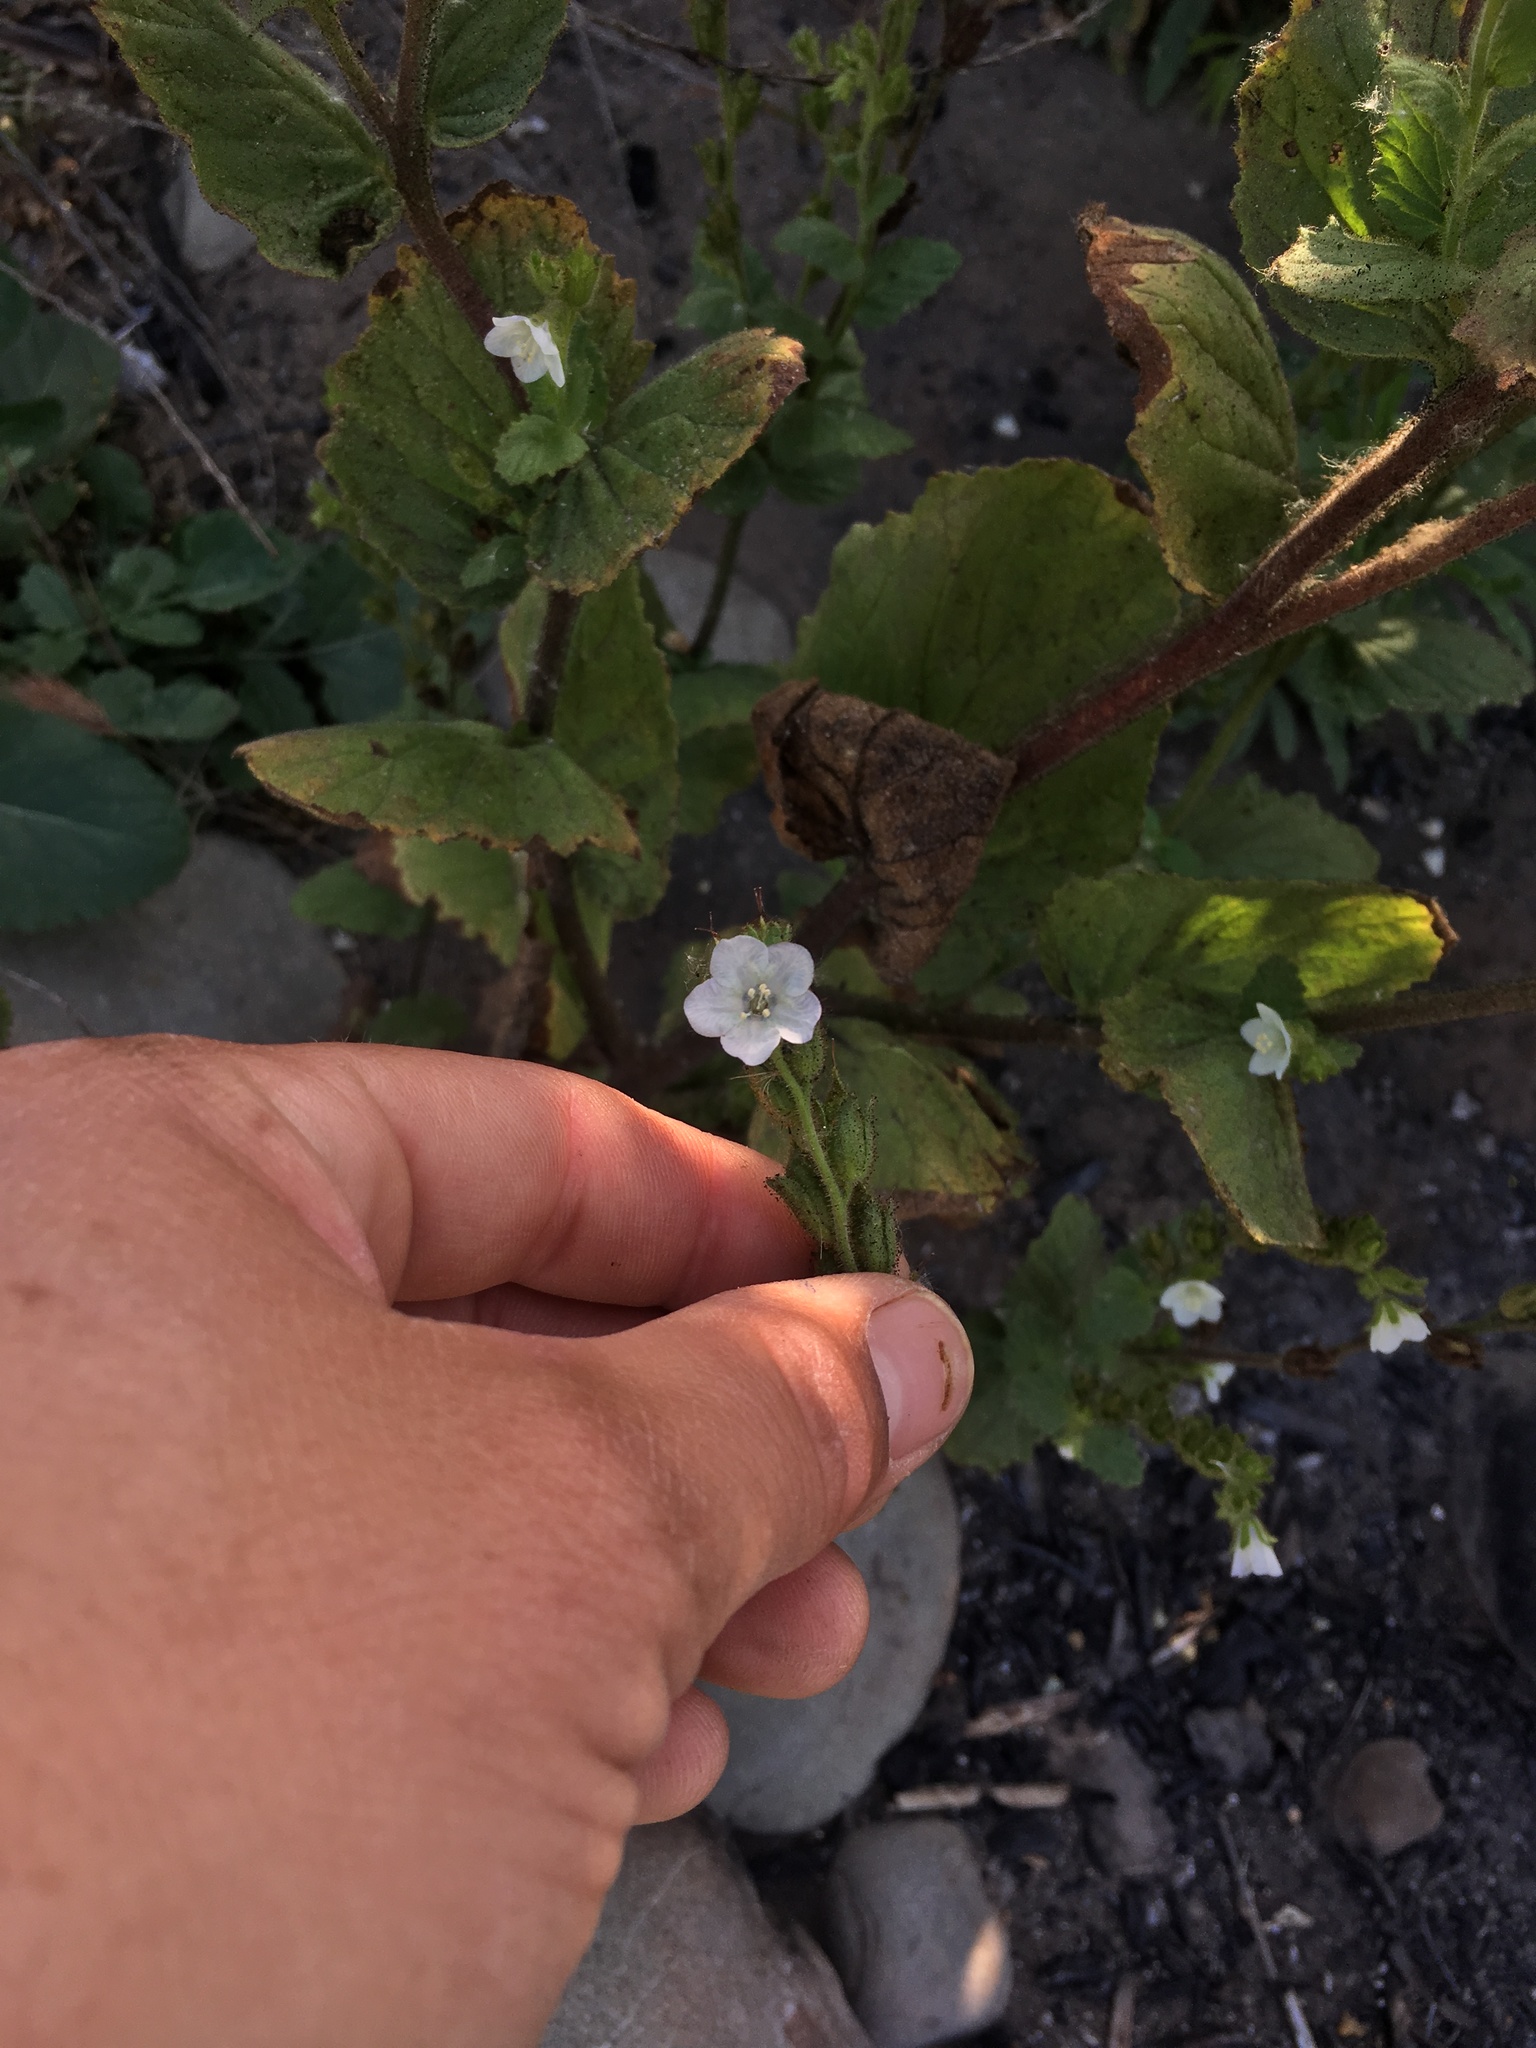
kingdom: Plantae
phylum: Tracheophyta
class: Magnoliopsida
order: Boraginales
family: Hydrophyllaceae
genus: Phacelia
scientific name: Phacelia viscida
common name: Sticky phacelia
